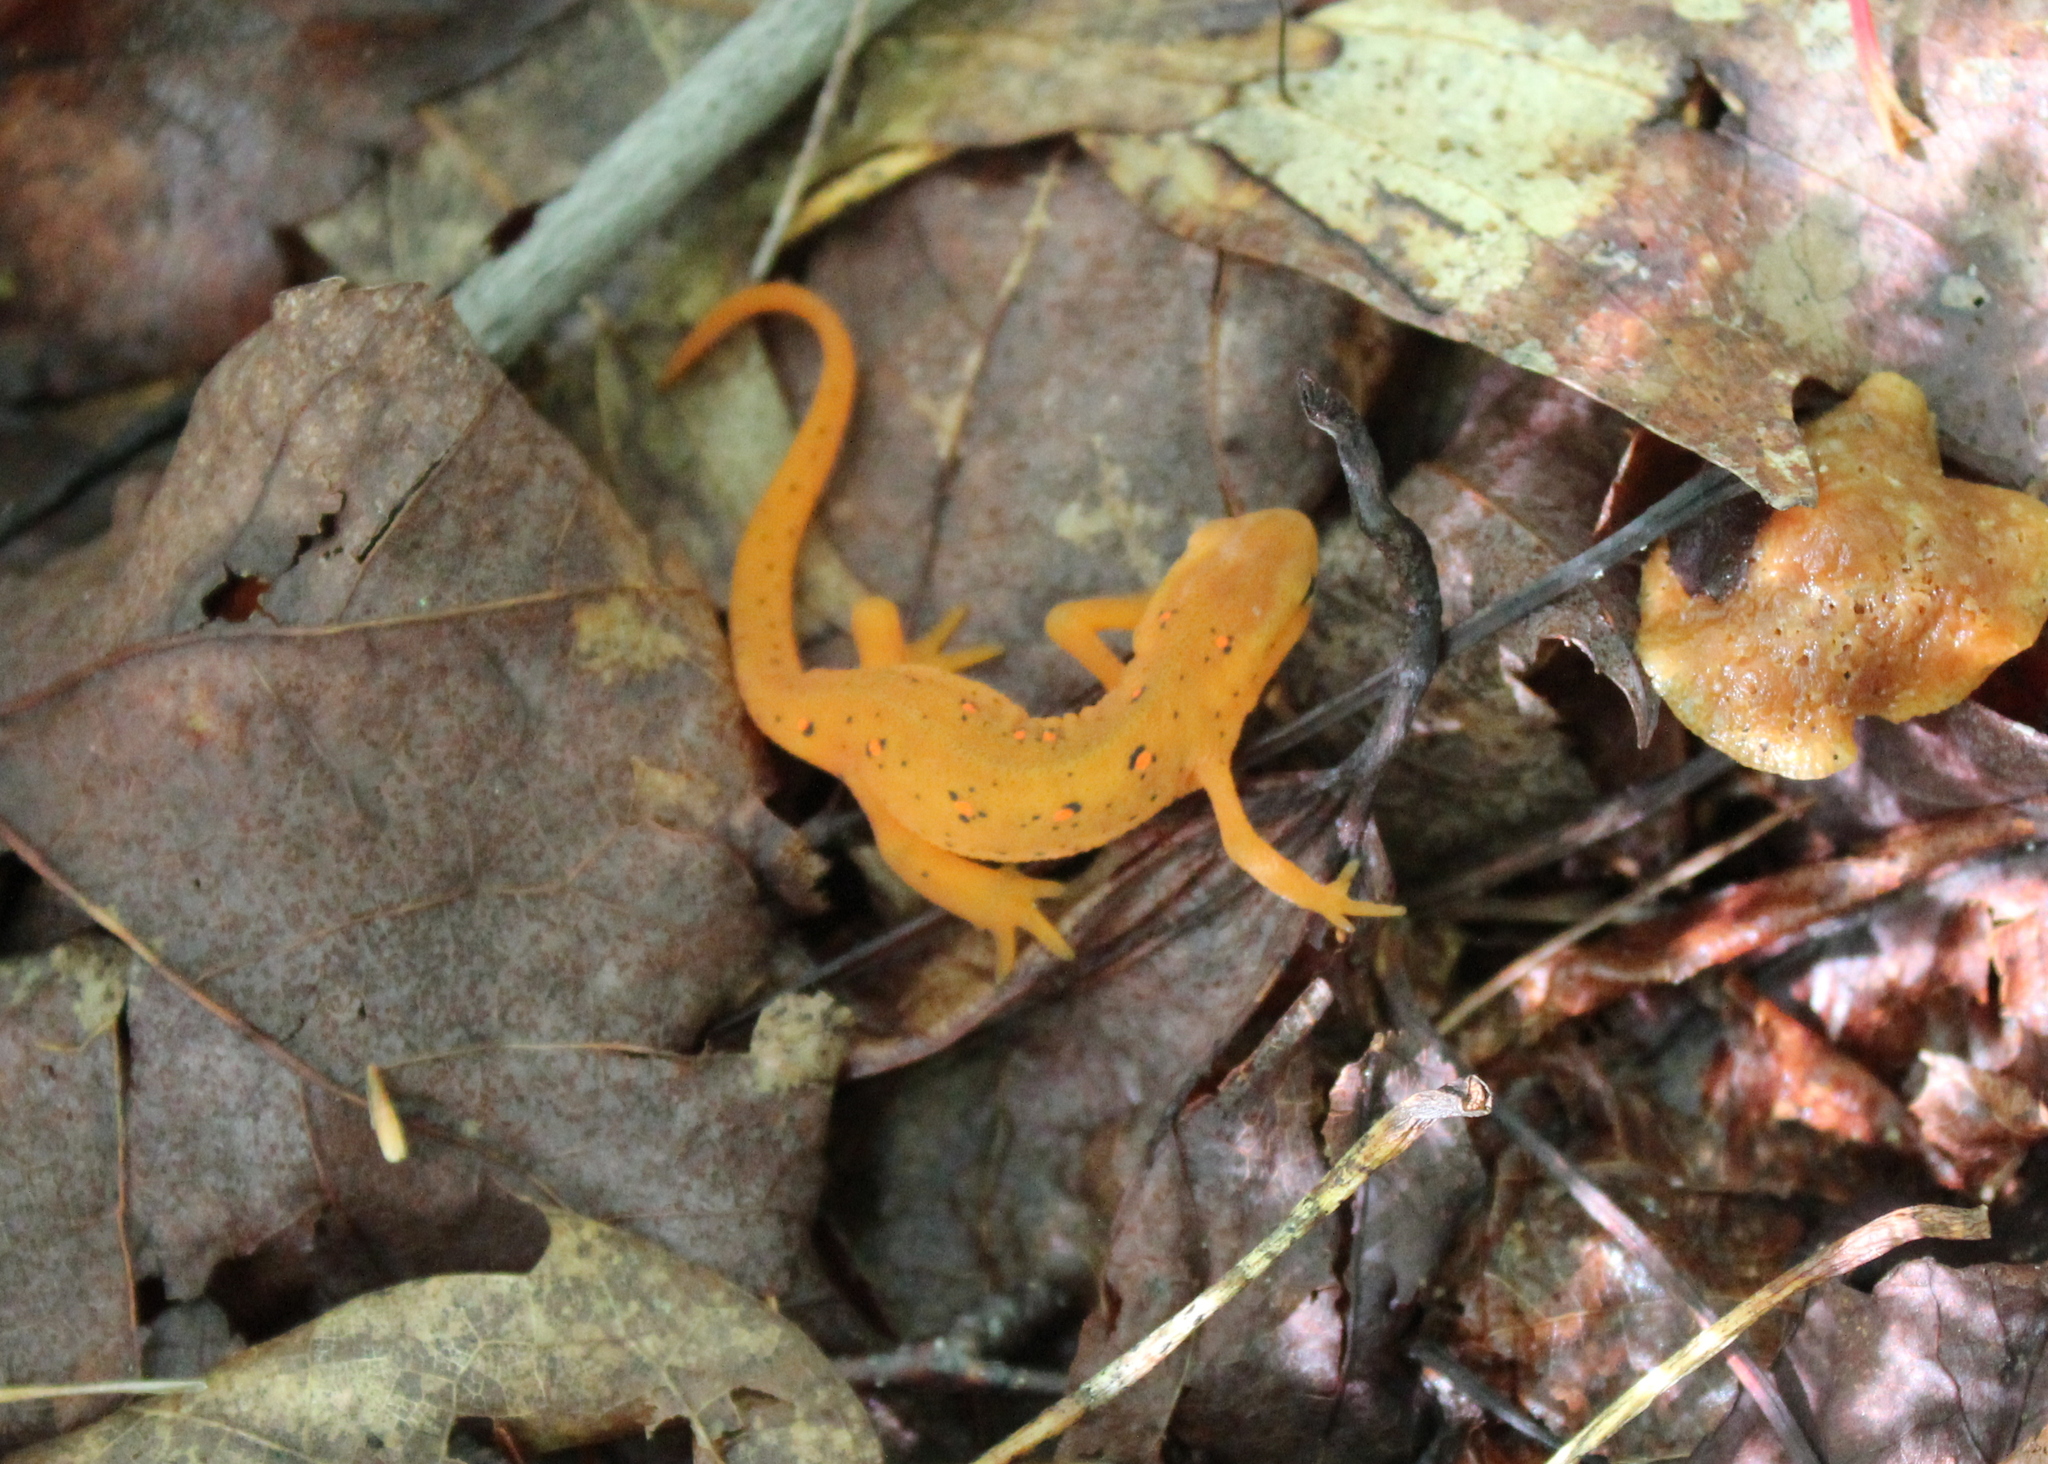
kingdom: Animalia
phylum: Chordata
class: Amphibia
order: Caudata
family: Salamandridae
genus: Notophthalmus
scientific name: Notophthalmus viridescens
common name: Eastern newt
